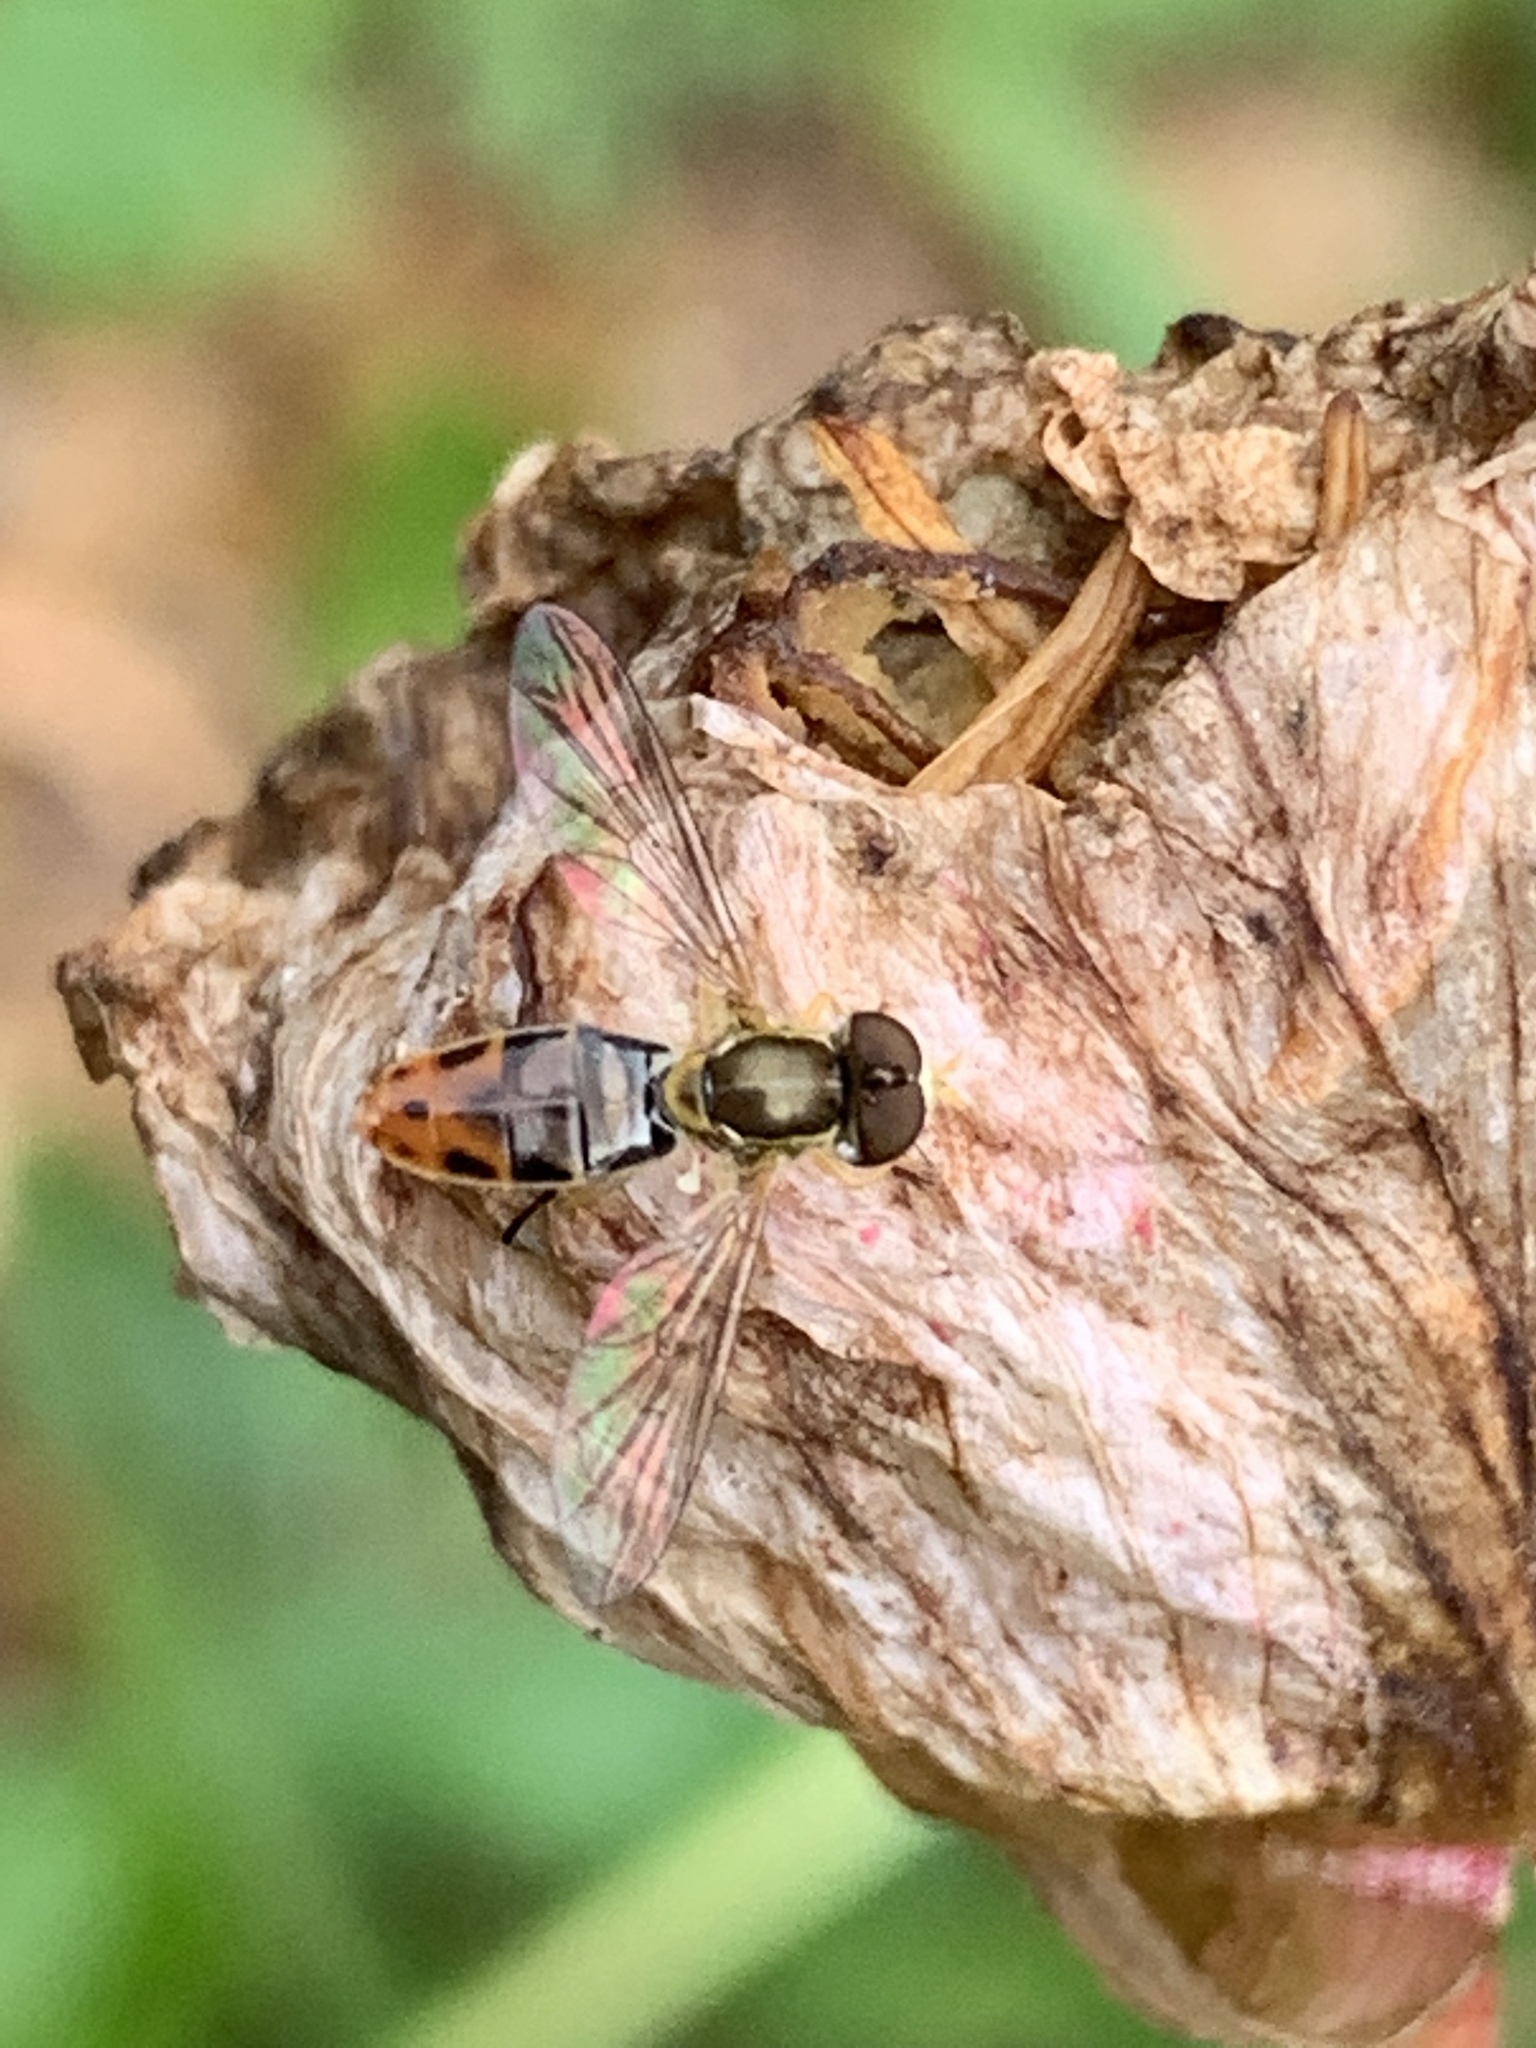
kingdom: Animalia
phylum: Arthropoda
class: Insecta
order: Diptera
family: Syrphidae
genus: Toxomerus
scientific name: Toxomerus marginatus
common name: Syrphid fly
